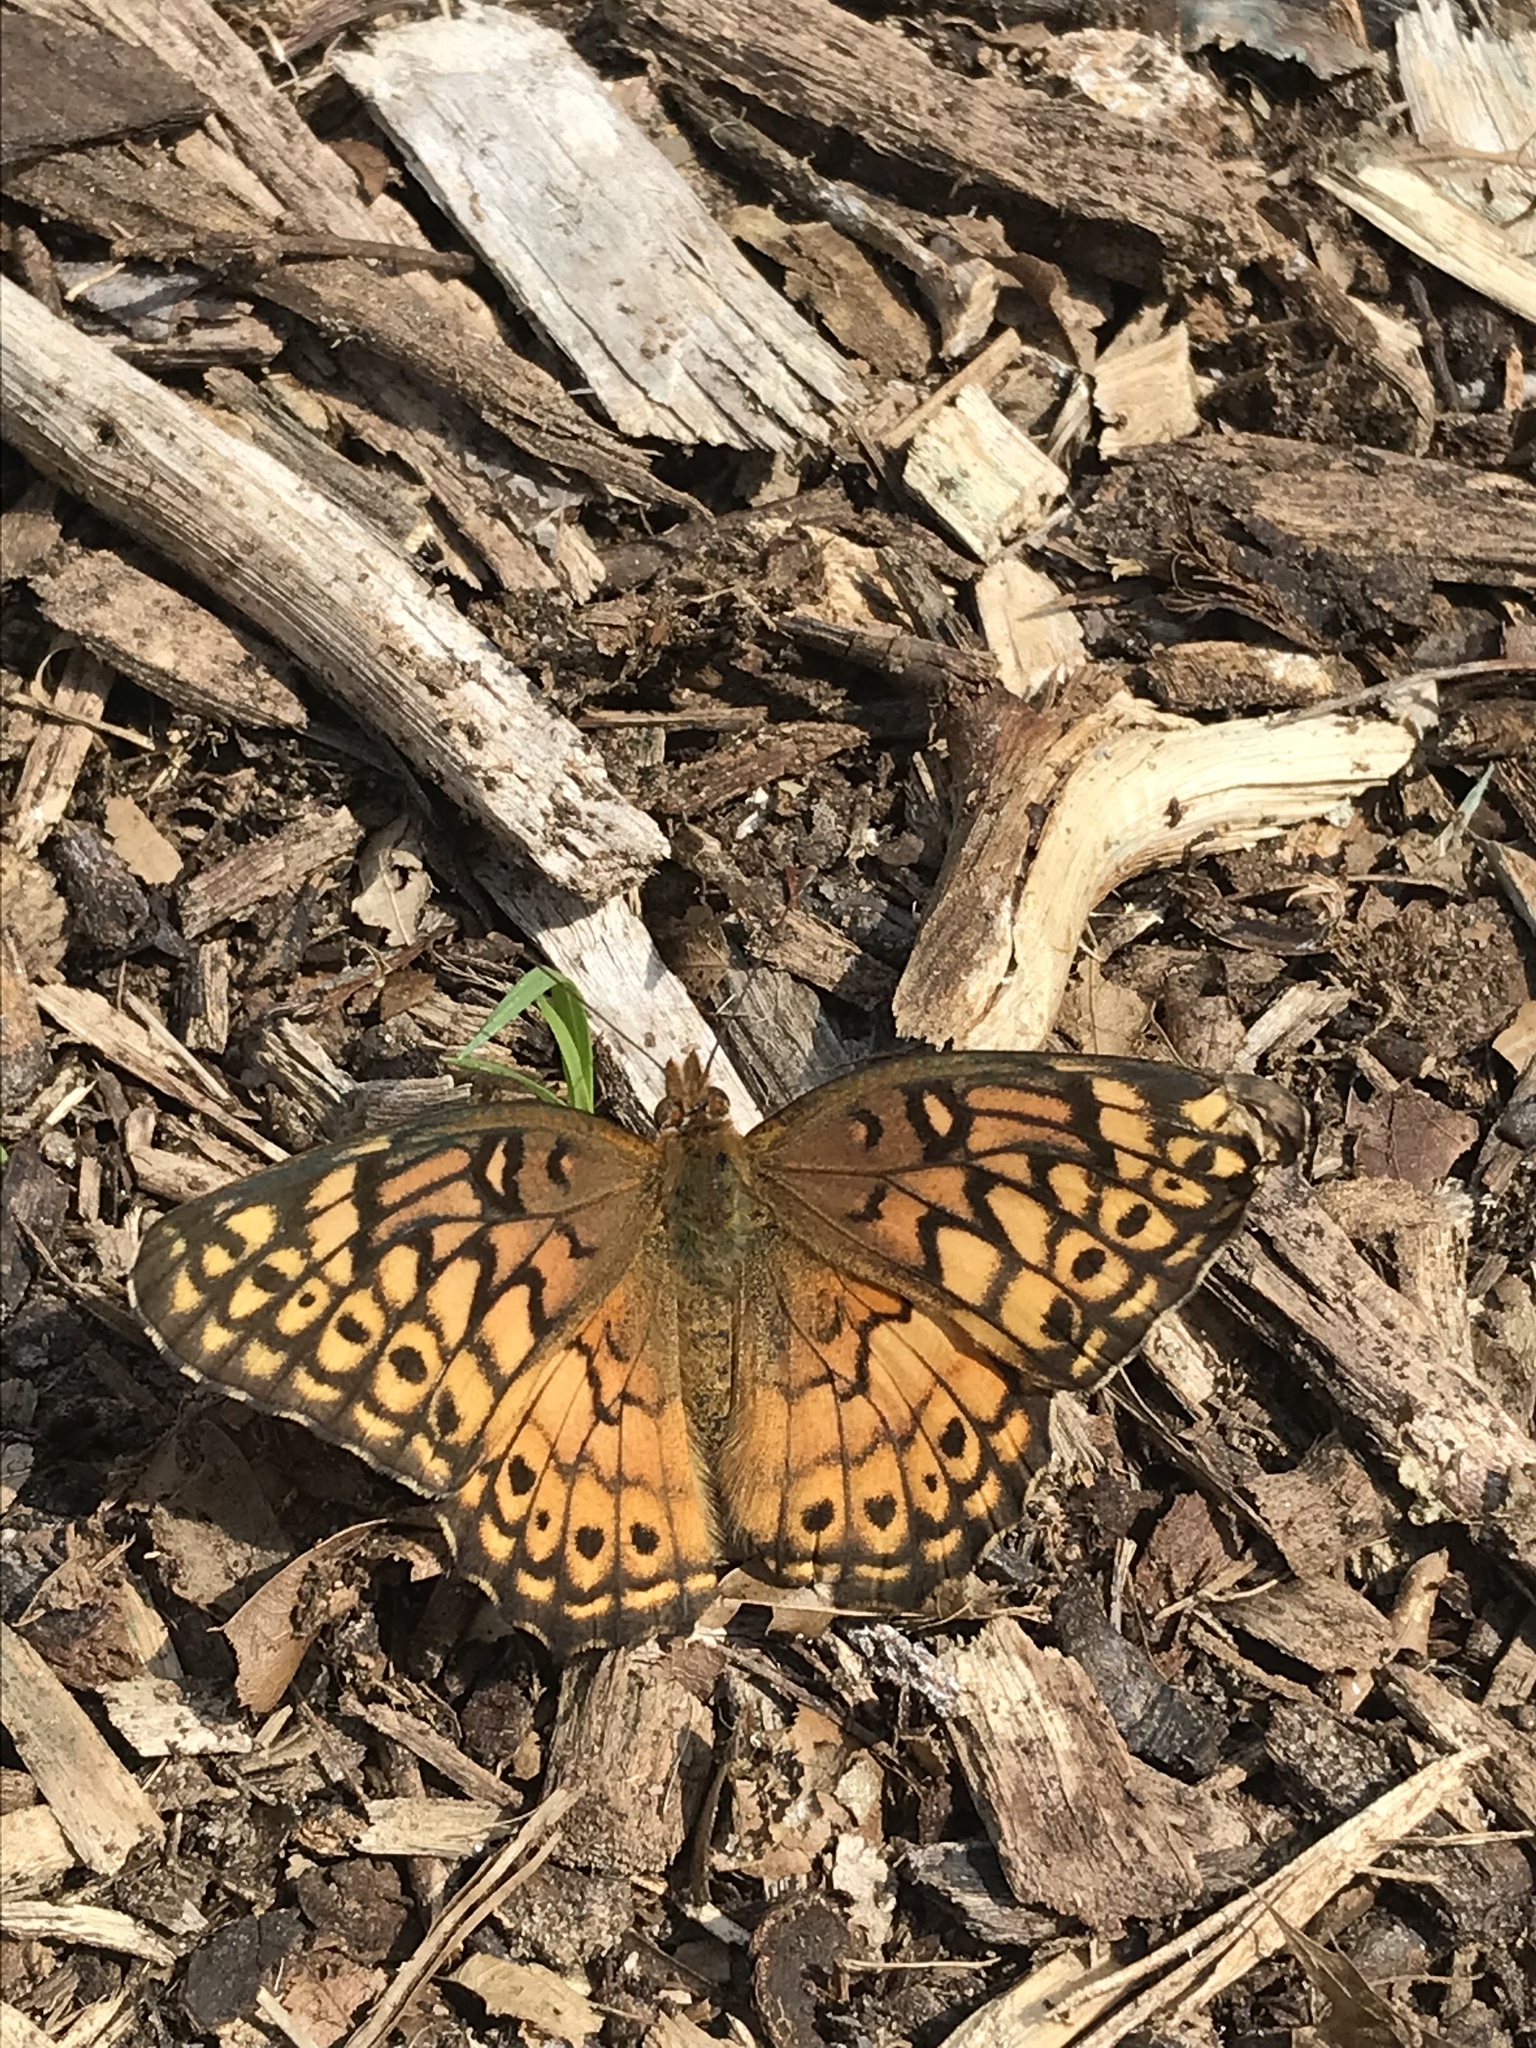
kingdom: Animalia
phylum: Arthropoda
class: Insecta
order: Lepidoptera
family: Nymphalidae
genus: Euptoieta
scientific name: Euptoieta claudia
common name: Variegated fritillary
